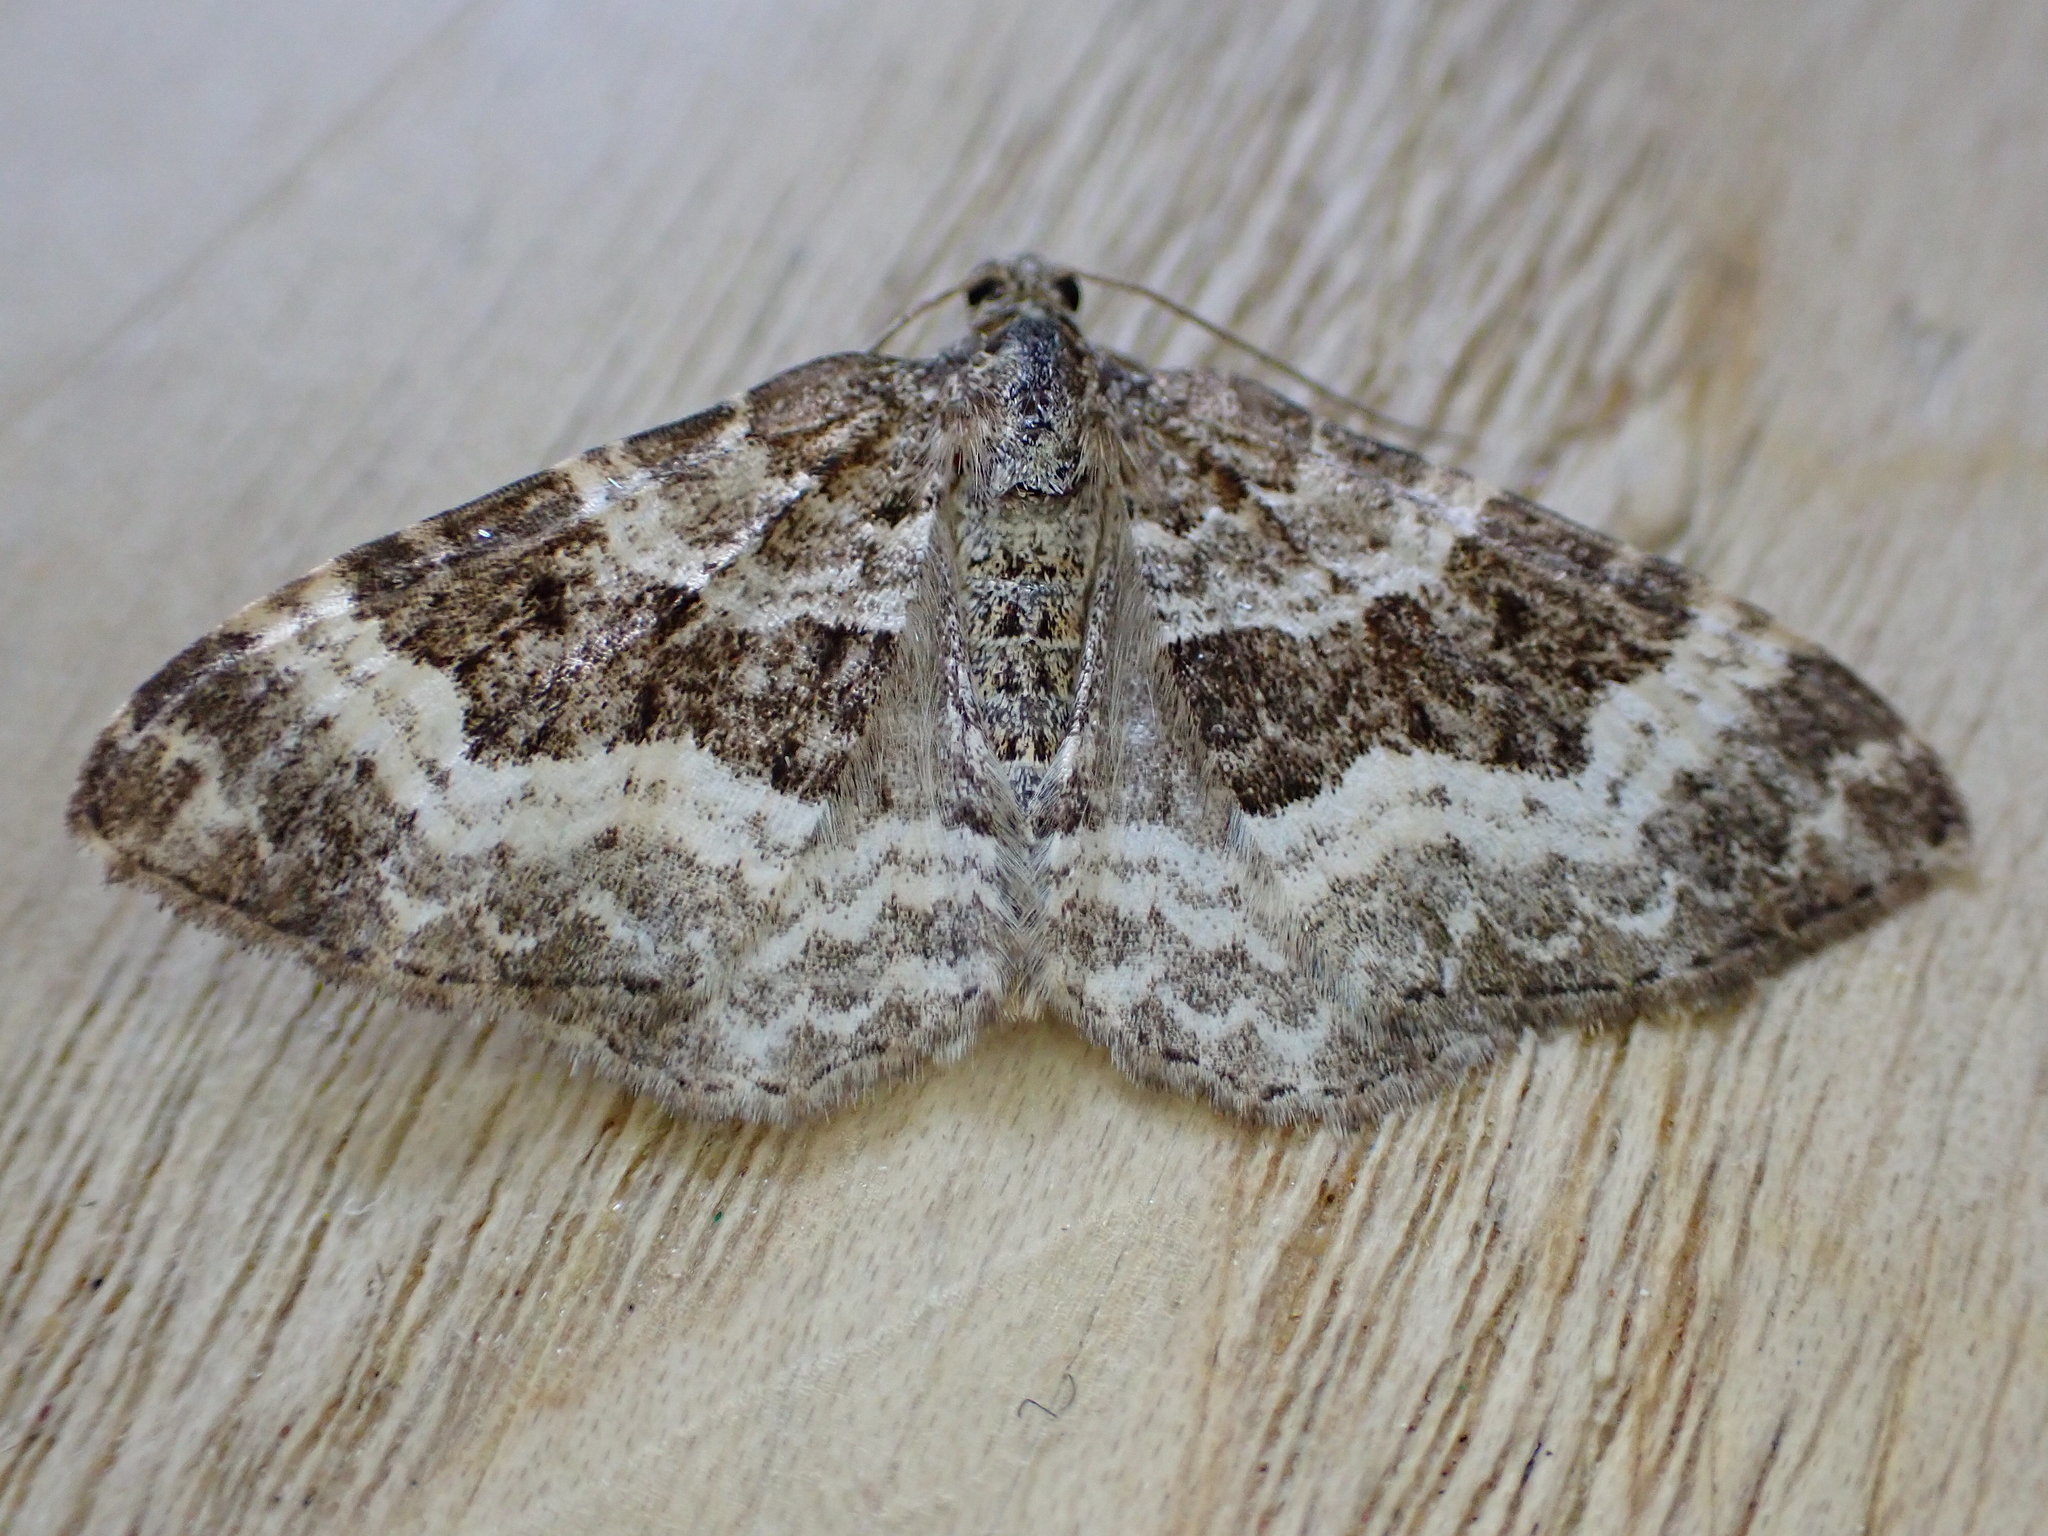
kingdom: Animalia
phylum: Arthropoda
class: Insecta
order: Lepidoptera
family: Geometridae
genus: Epirrhoe
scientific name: Epirrhoe alternata
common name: Common carpet
